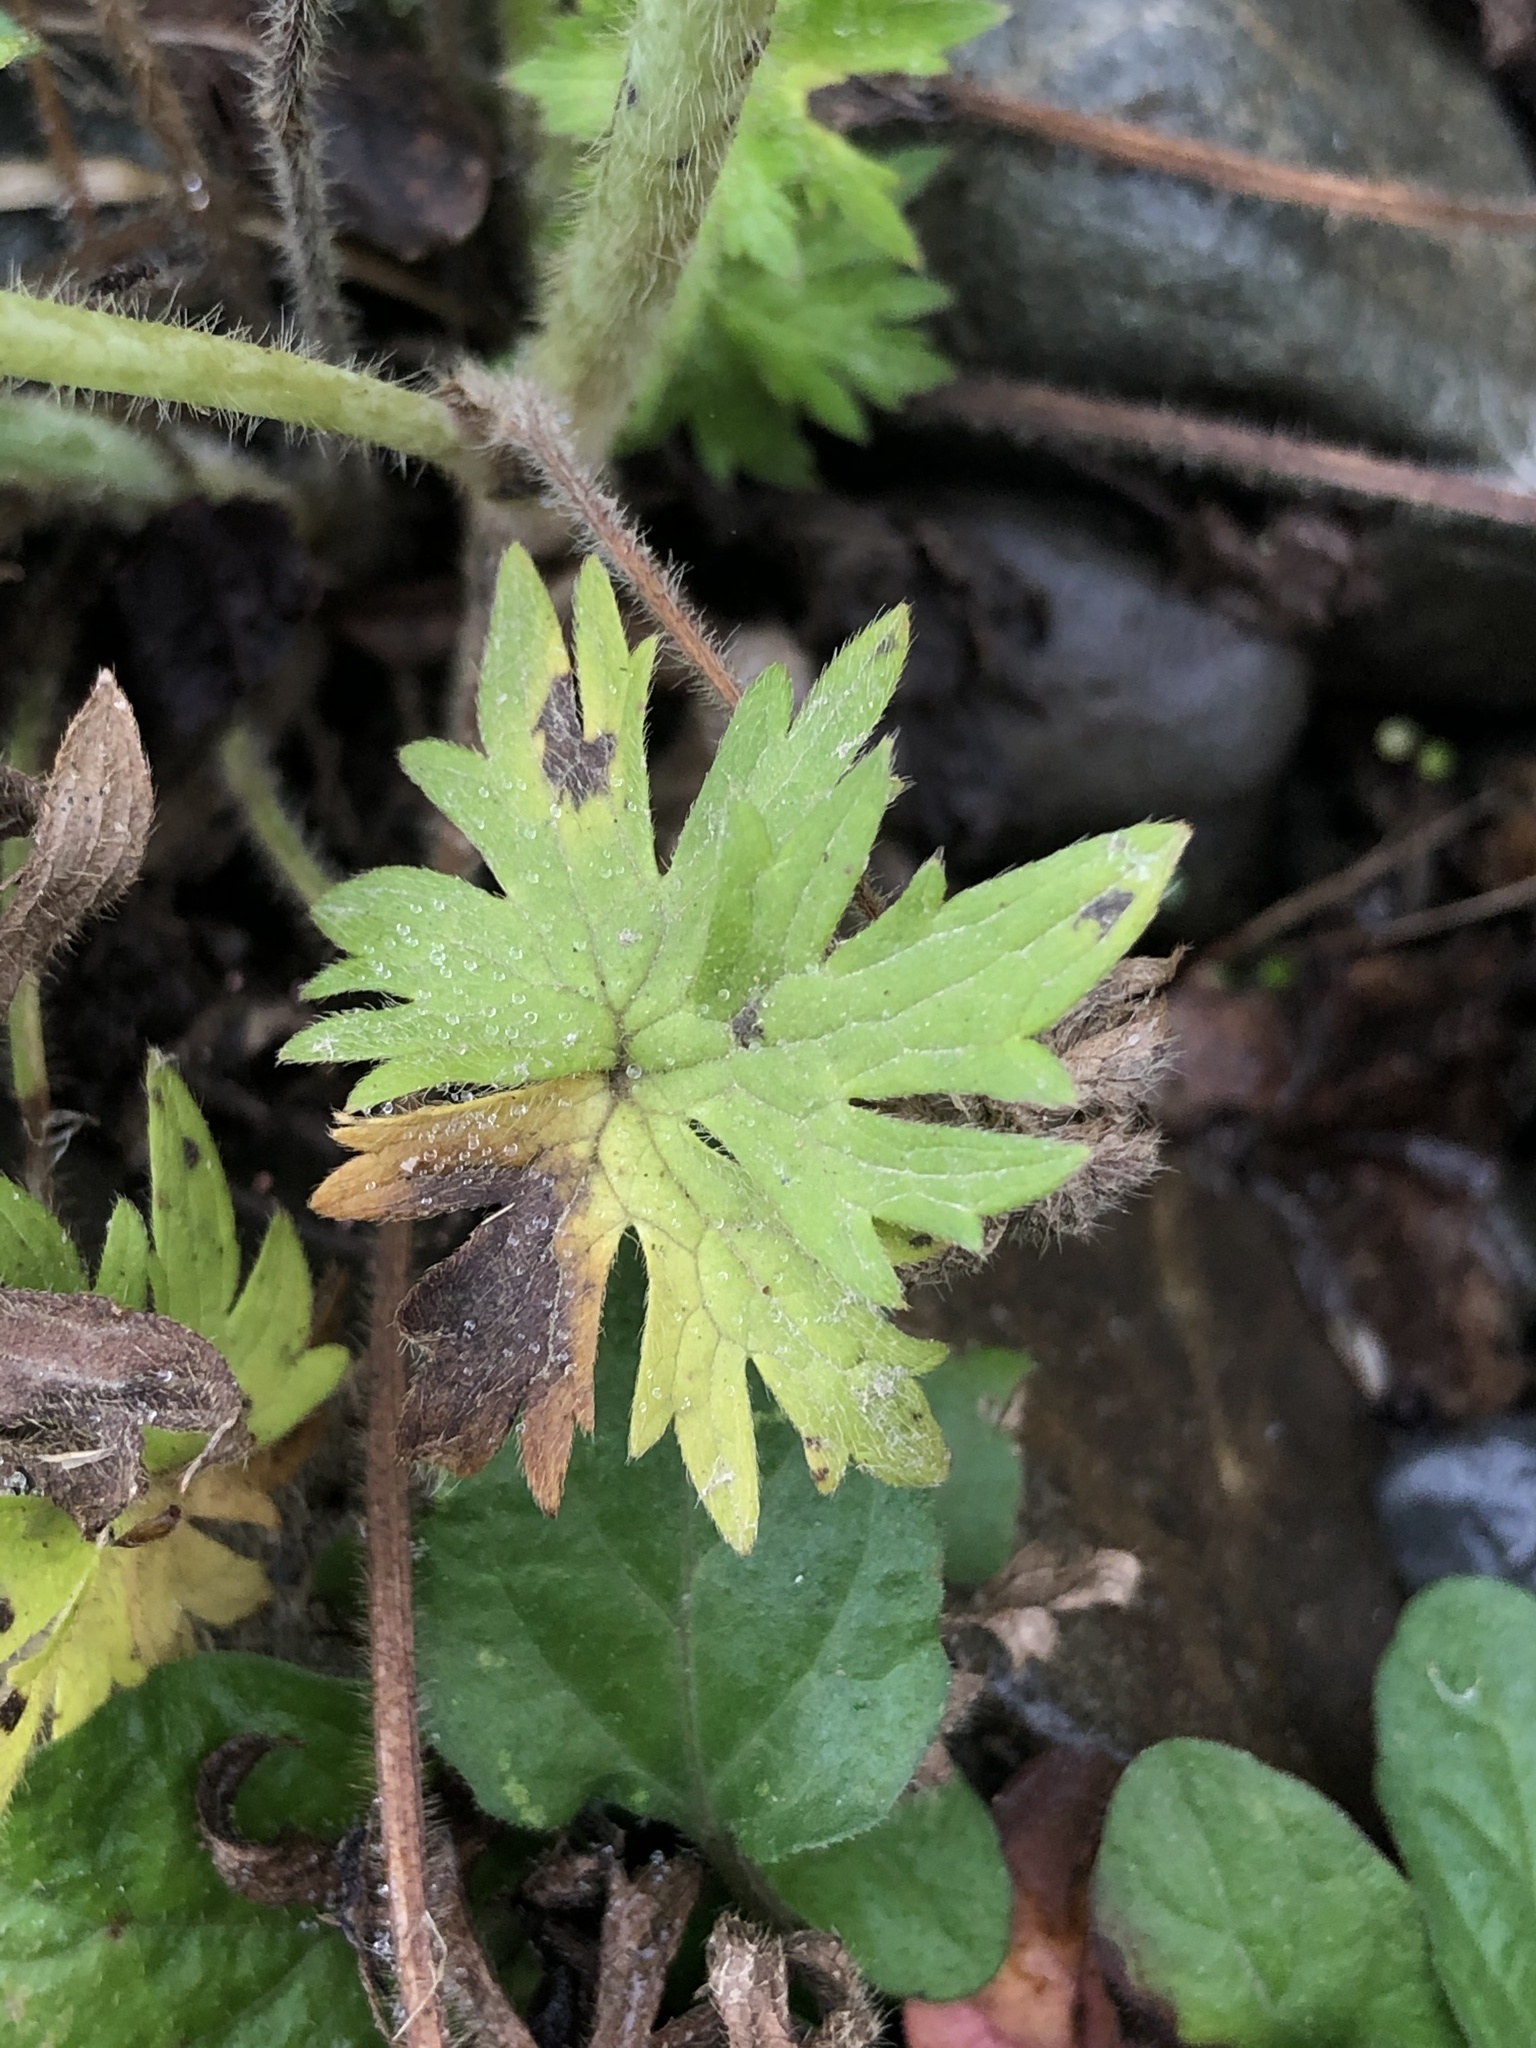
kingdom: Plantae
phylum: Tracheophyta
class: Magnoliopsida
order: Ranunculales
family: Ranunculaceae
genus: Ranunculus
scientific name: Ranunculus acris
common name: Meadow buttercup
